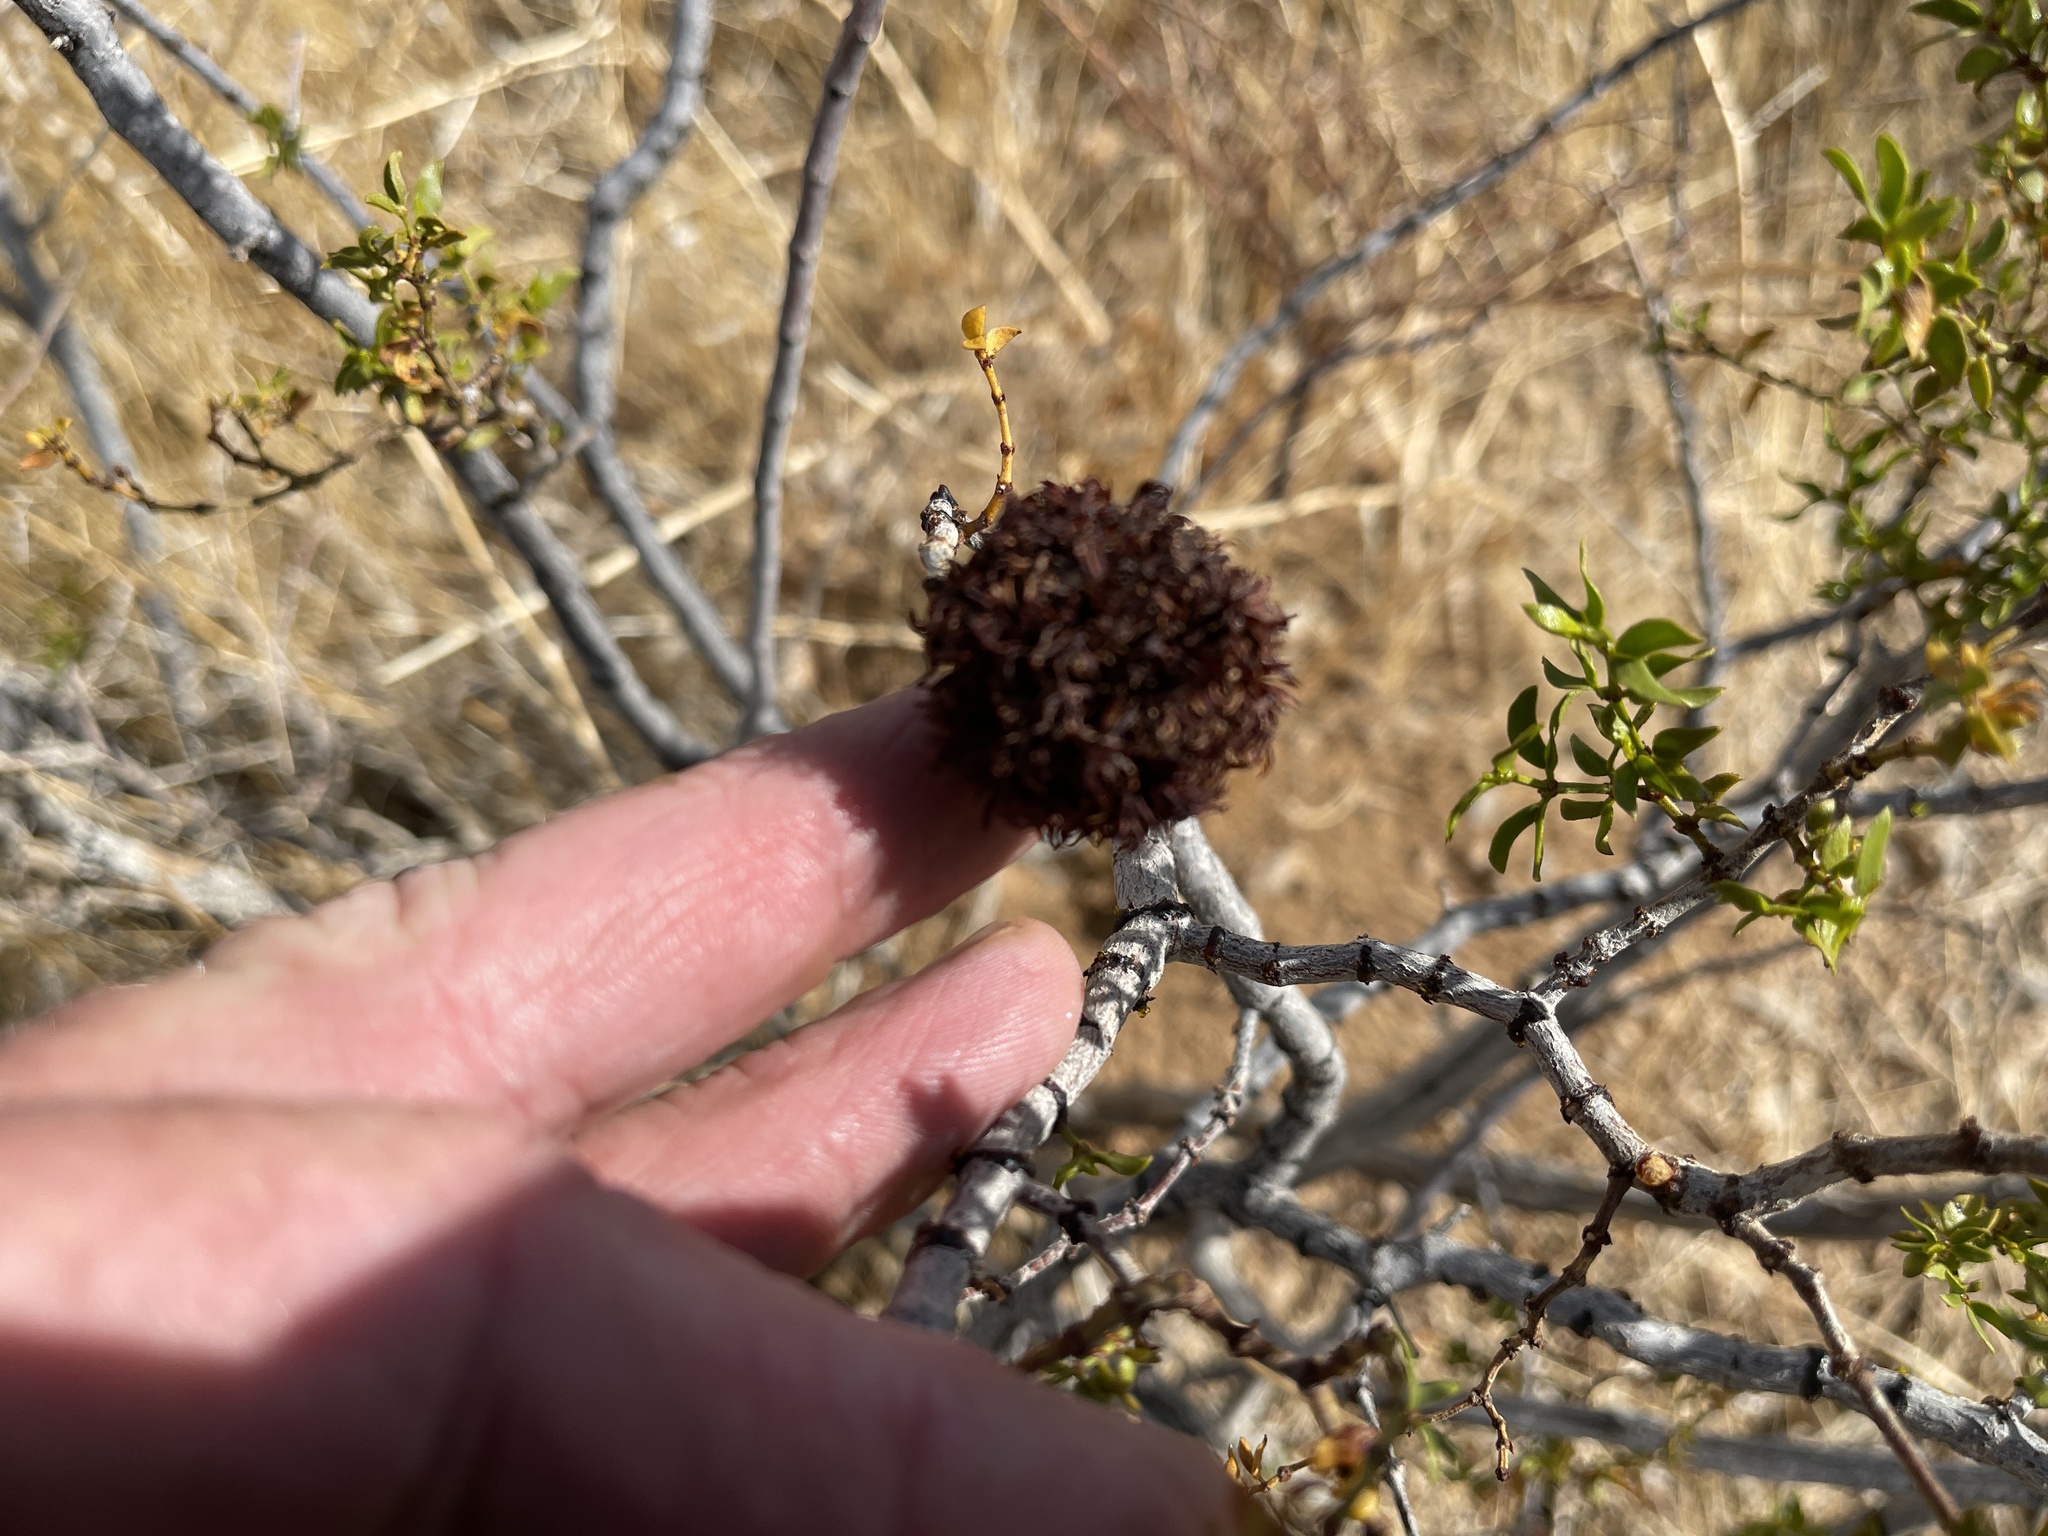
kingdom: Animalia
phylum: Arthropoda
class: Insecta
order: Diptera
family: Cecidomyiidae
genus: Asphondylia
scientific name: Asphondylia auripila
